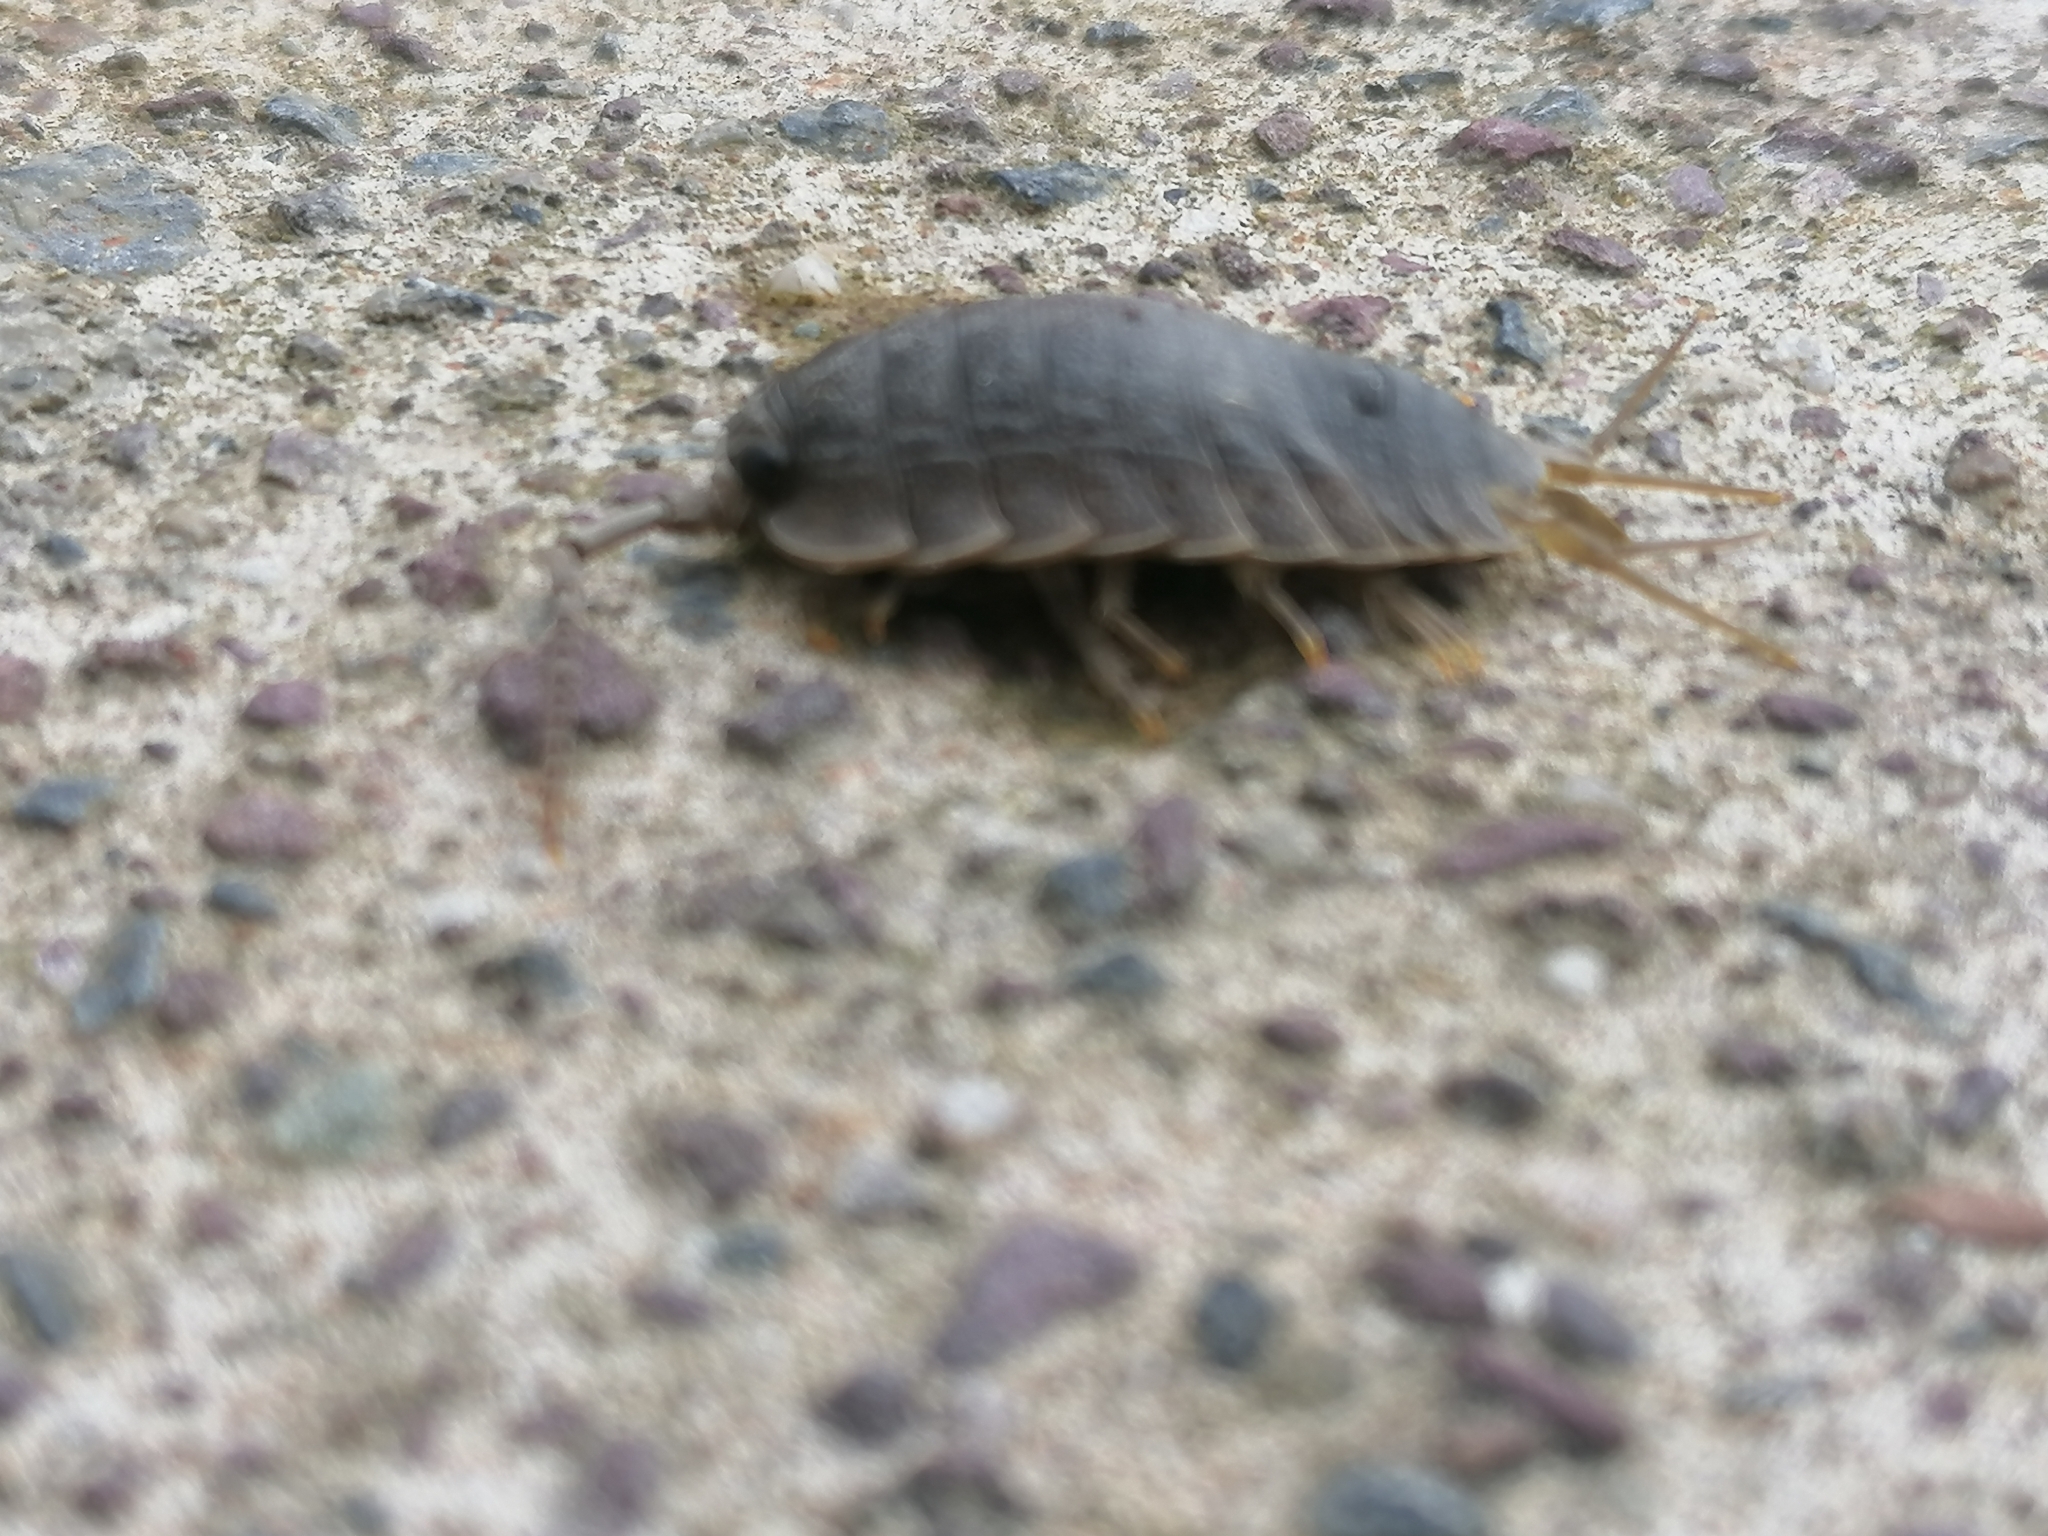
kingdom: Animalia
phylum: Arthropoda
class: Malacostraca
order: Isopoda
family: Ligiidae
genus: Ligia
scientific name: Ligia oceanica
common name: Sea slater
